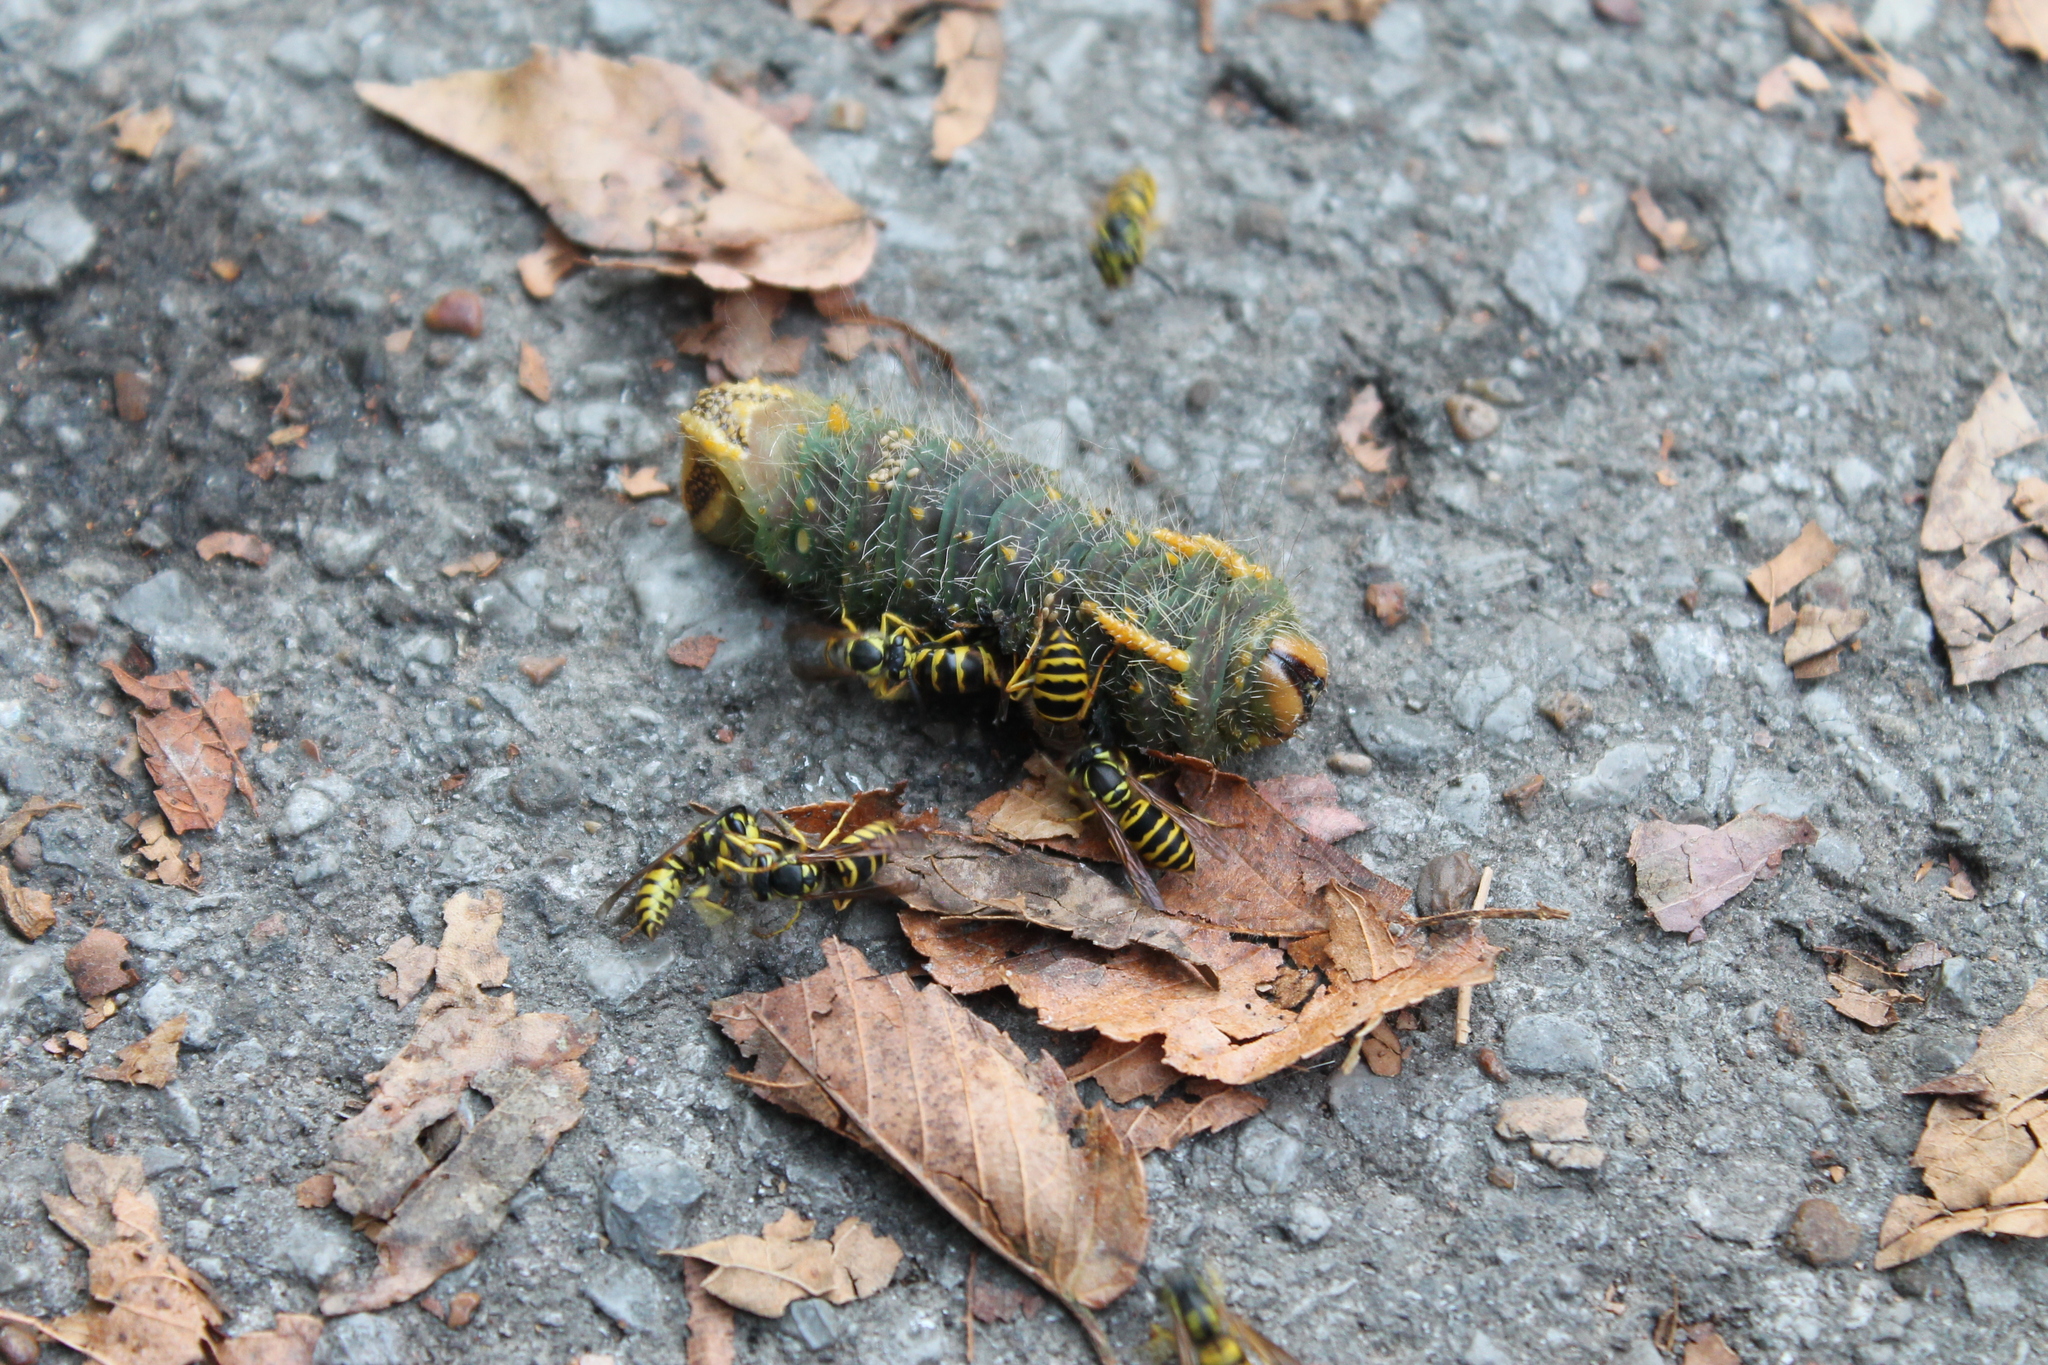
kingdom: Animalia
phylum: Arthropoda
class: Insecta
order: Hymenoptera
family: Vespidae
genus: Vespula
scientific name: Vespula maculifrons
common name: Eastern yellowjacket
